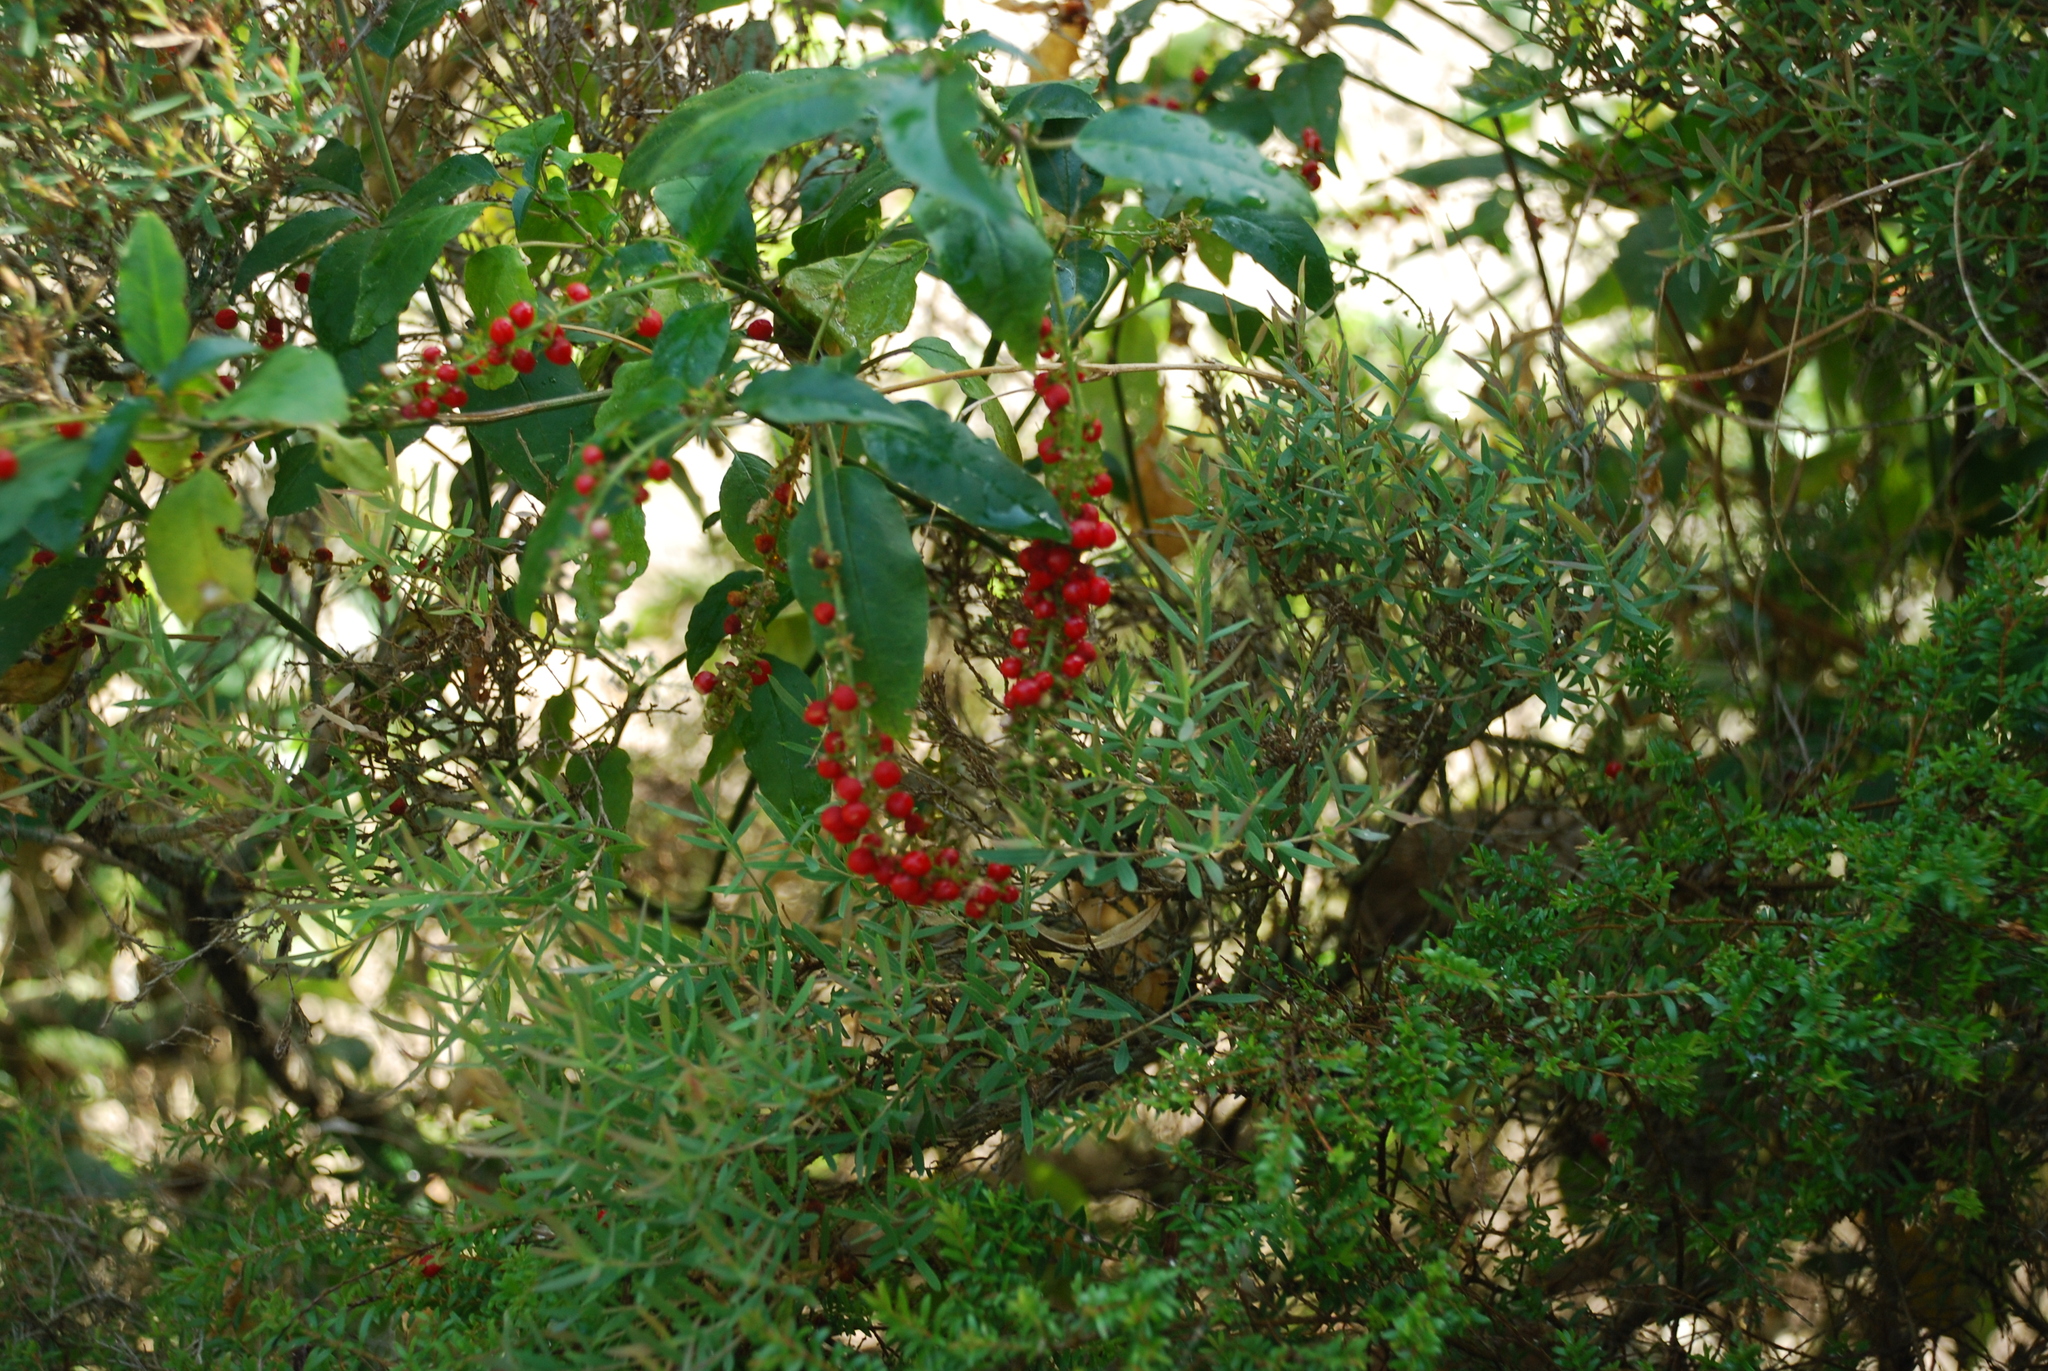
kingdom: Plantae
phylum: Tracheophyta
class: Magnoliopsida
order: Caryophyllales
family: Phytolaccaceae
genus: Rivina
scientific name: Rivina humilis
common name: Rougeplant
